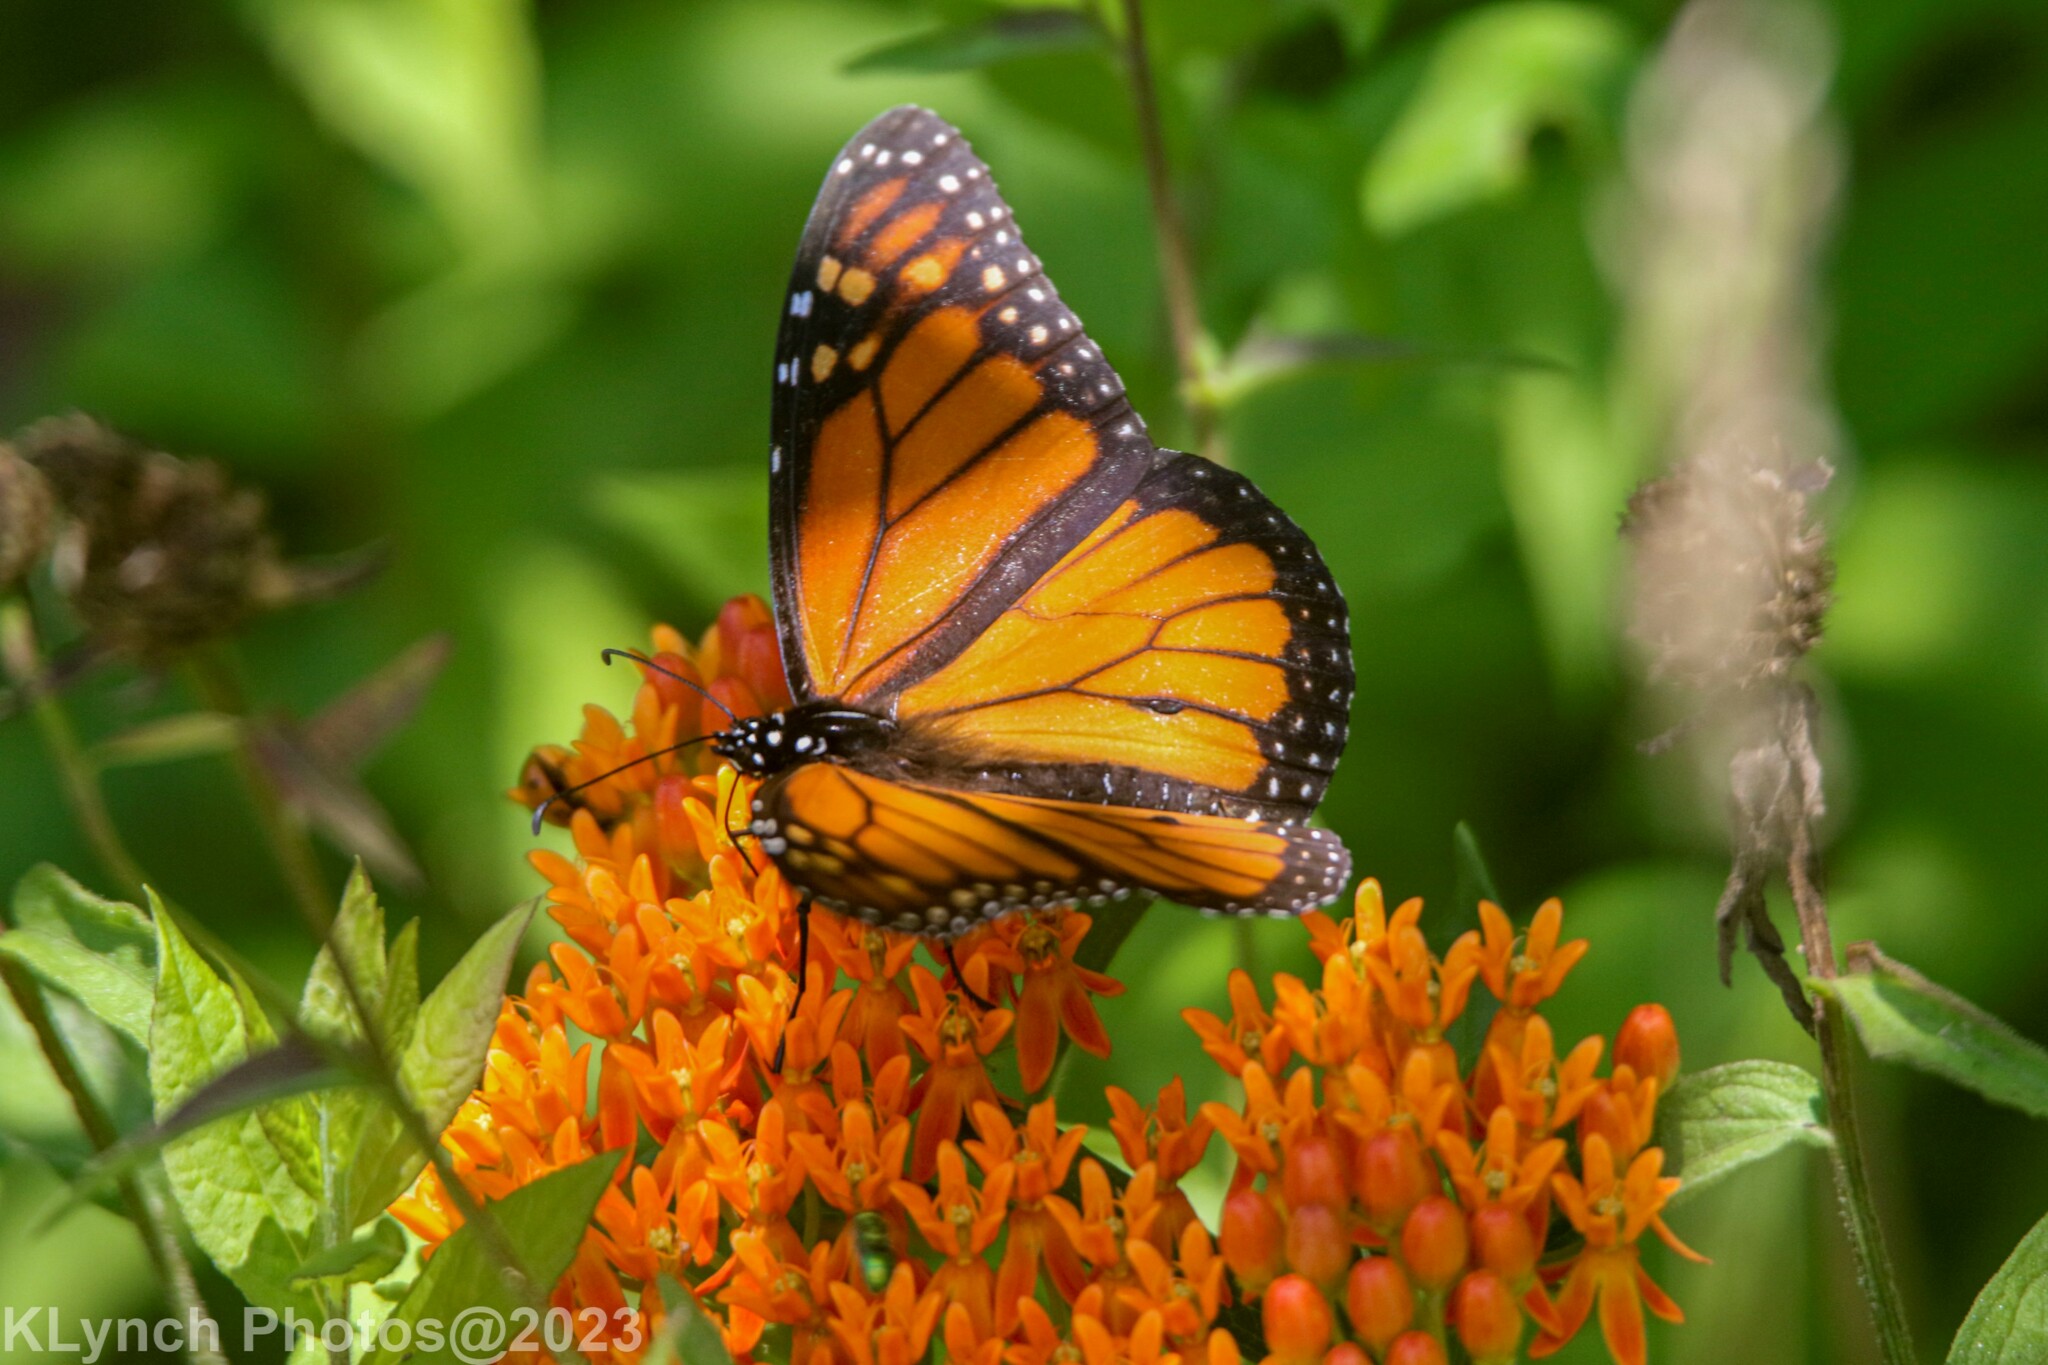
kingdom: Animalia
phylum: Arthropoda
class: Insecta
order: Lepidoptera
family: Nymphalidae
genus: Danaus
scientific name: Danaus plexippus
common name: Monarch
